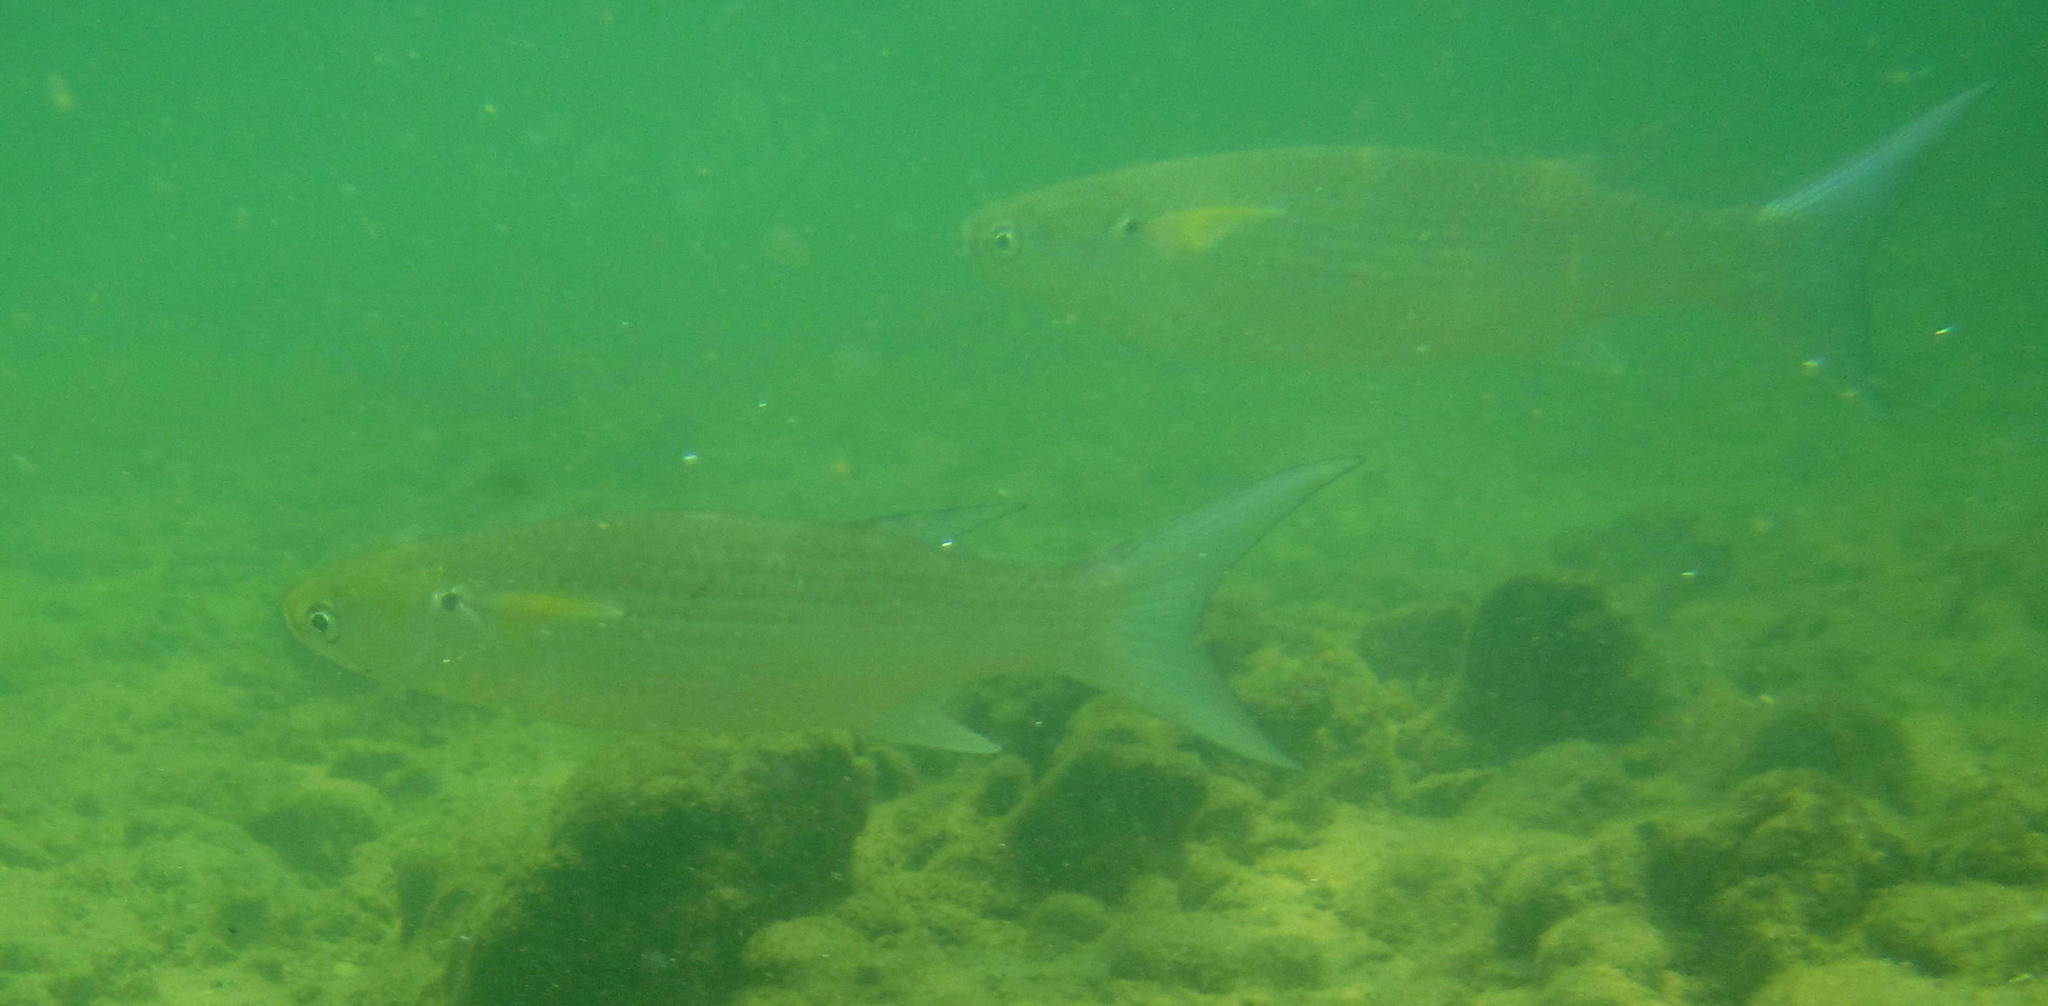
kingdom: Animalia
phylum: Chordata
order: Mugiliformes
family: Mugilidae
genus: Crenimugil
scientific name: Crenimugil buchanani
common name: Bluetail mullet
